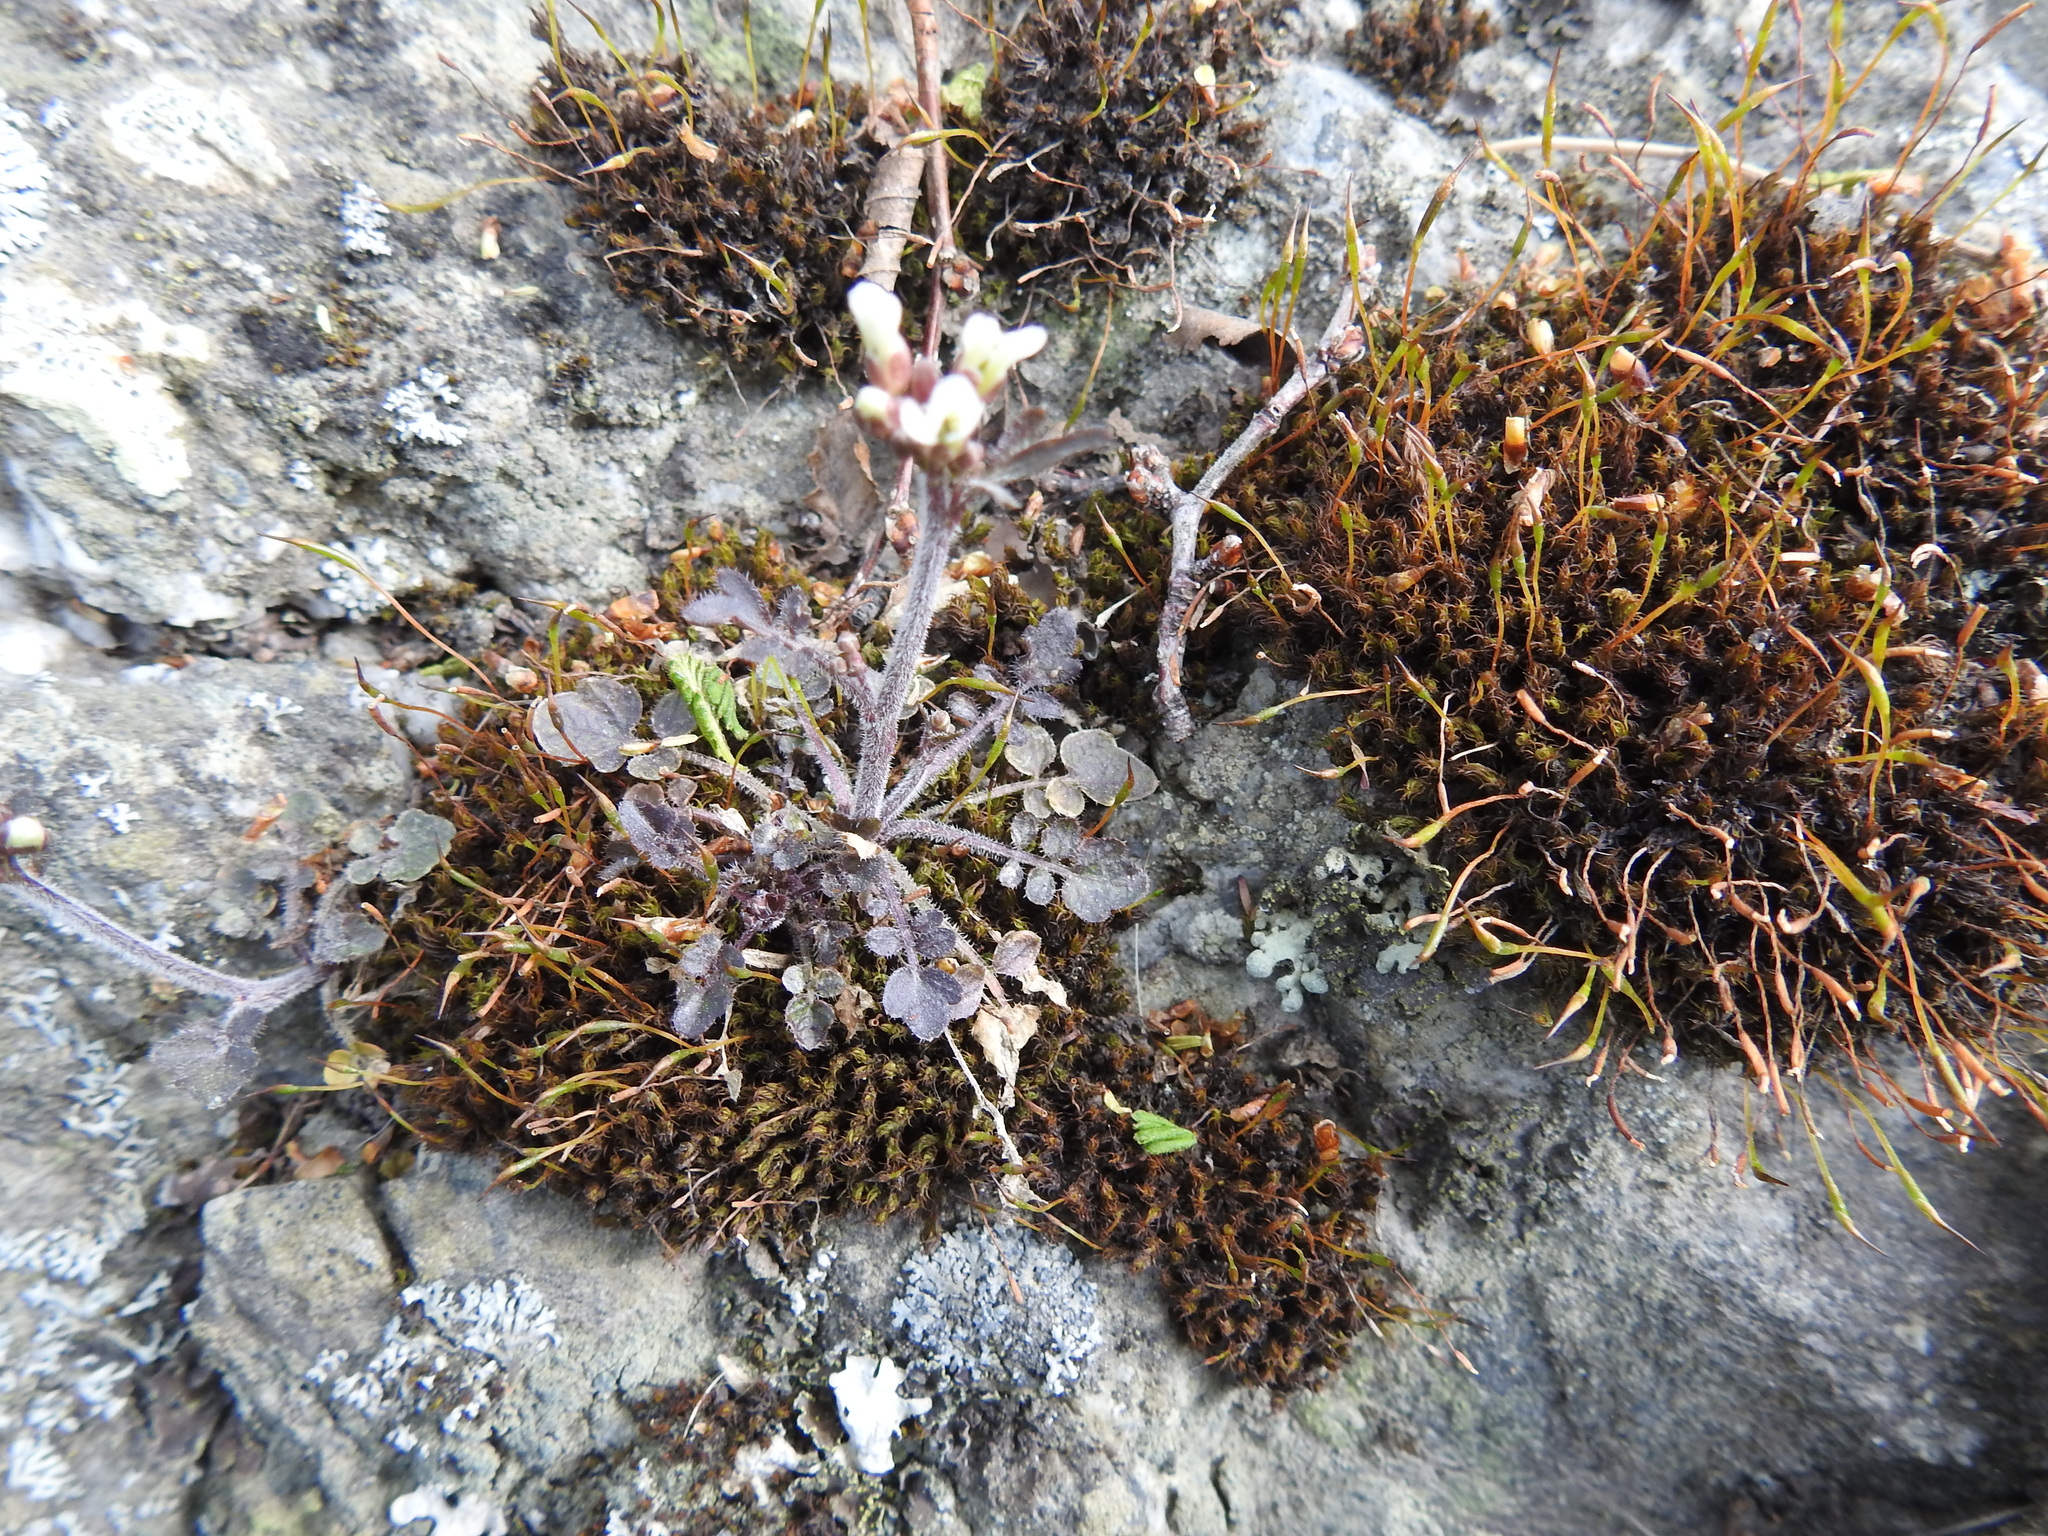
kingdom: Plantae
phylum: Tracheophyta
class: Magnoliopsida
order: Brassicales
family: Brassicaceae
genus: Cardamine
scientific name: Cardamine glacialis
